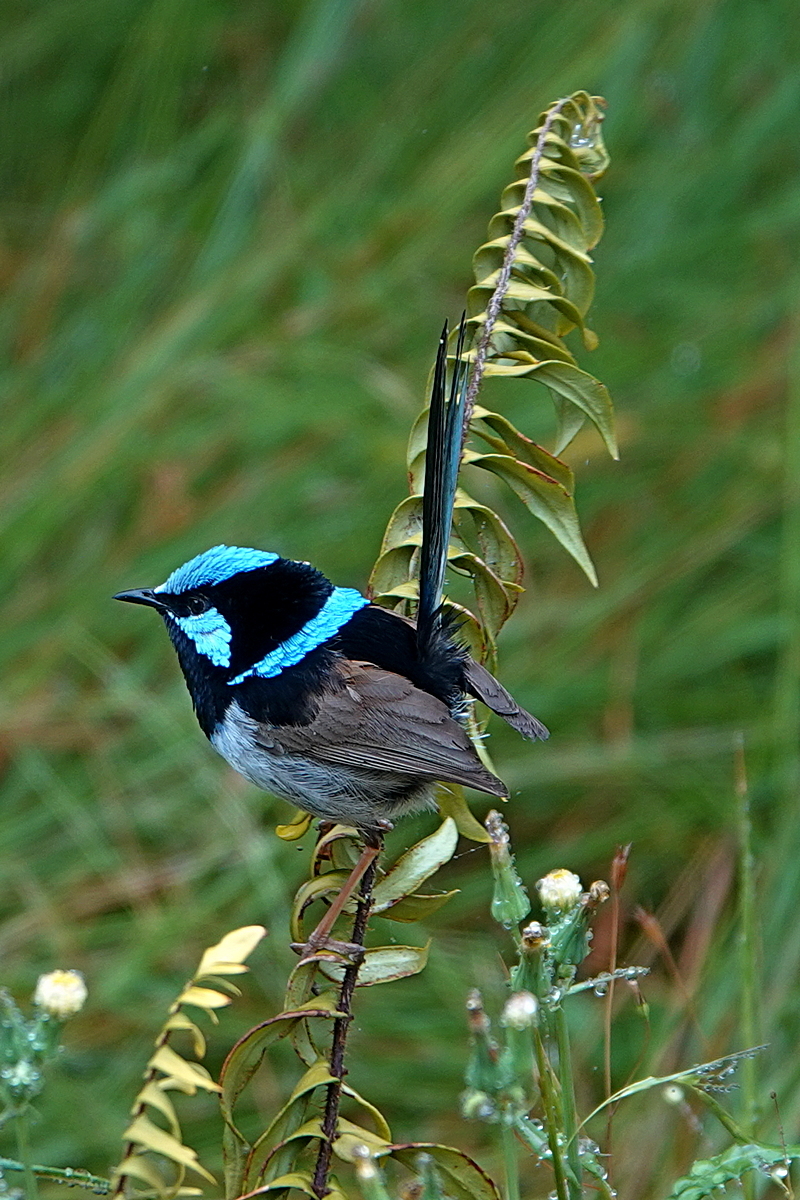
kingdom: Animalia
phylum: Chordata
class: Aves
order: Passeriformes
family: Maluridae
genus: Malurus
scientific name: Malurus cyaneus
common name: Superb fairywren
